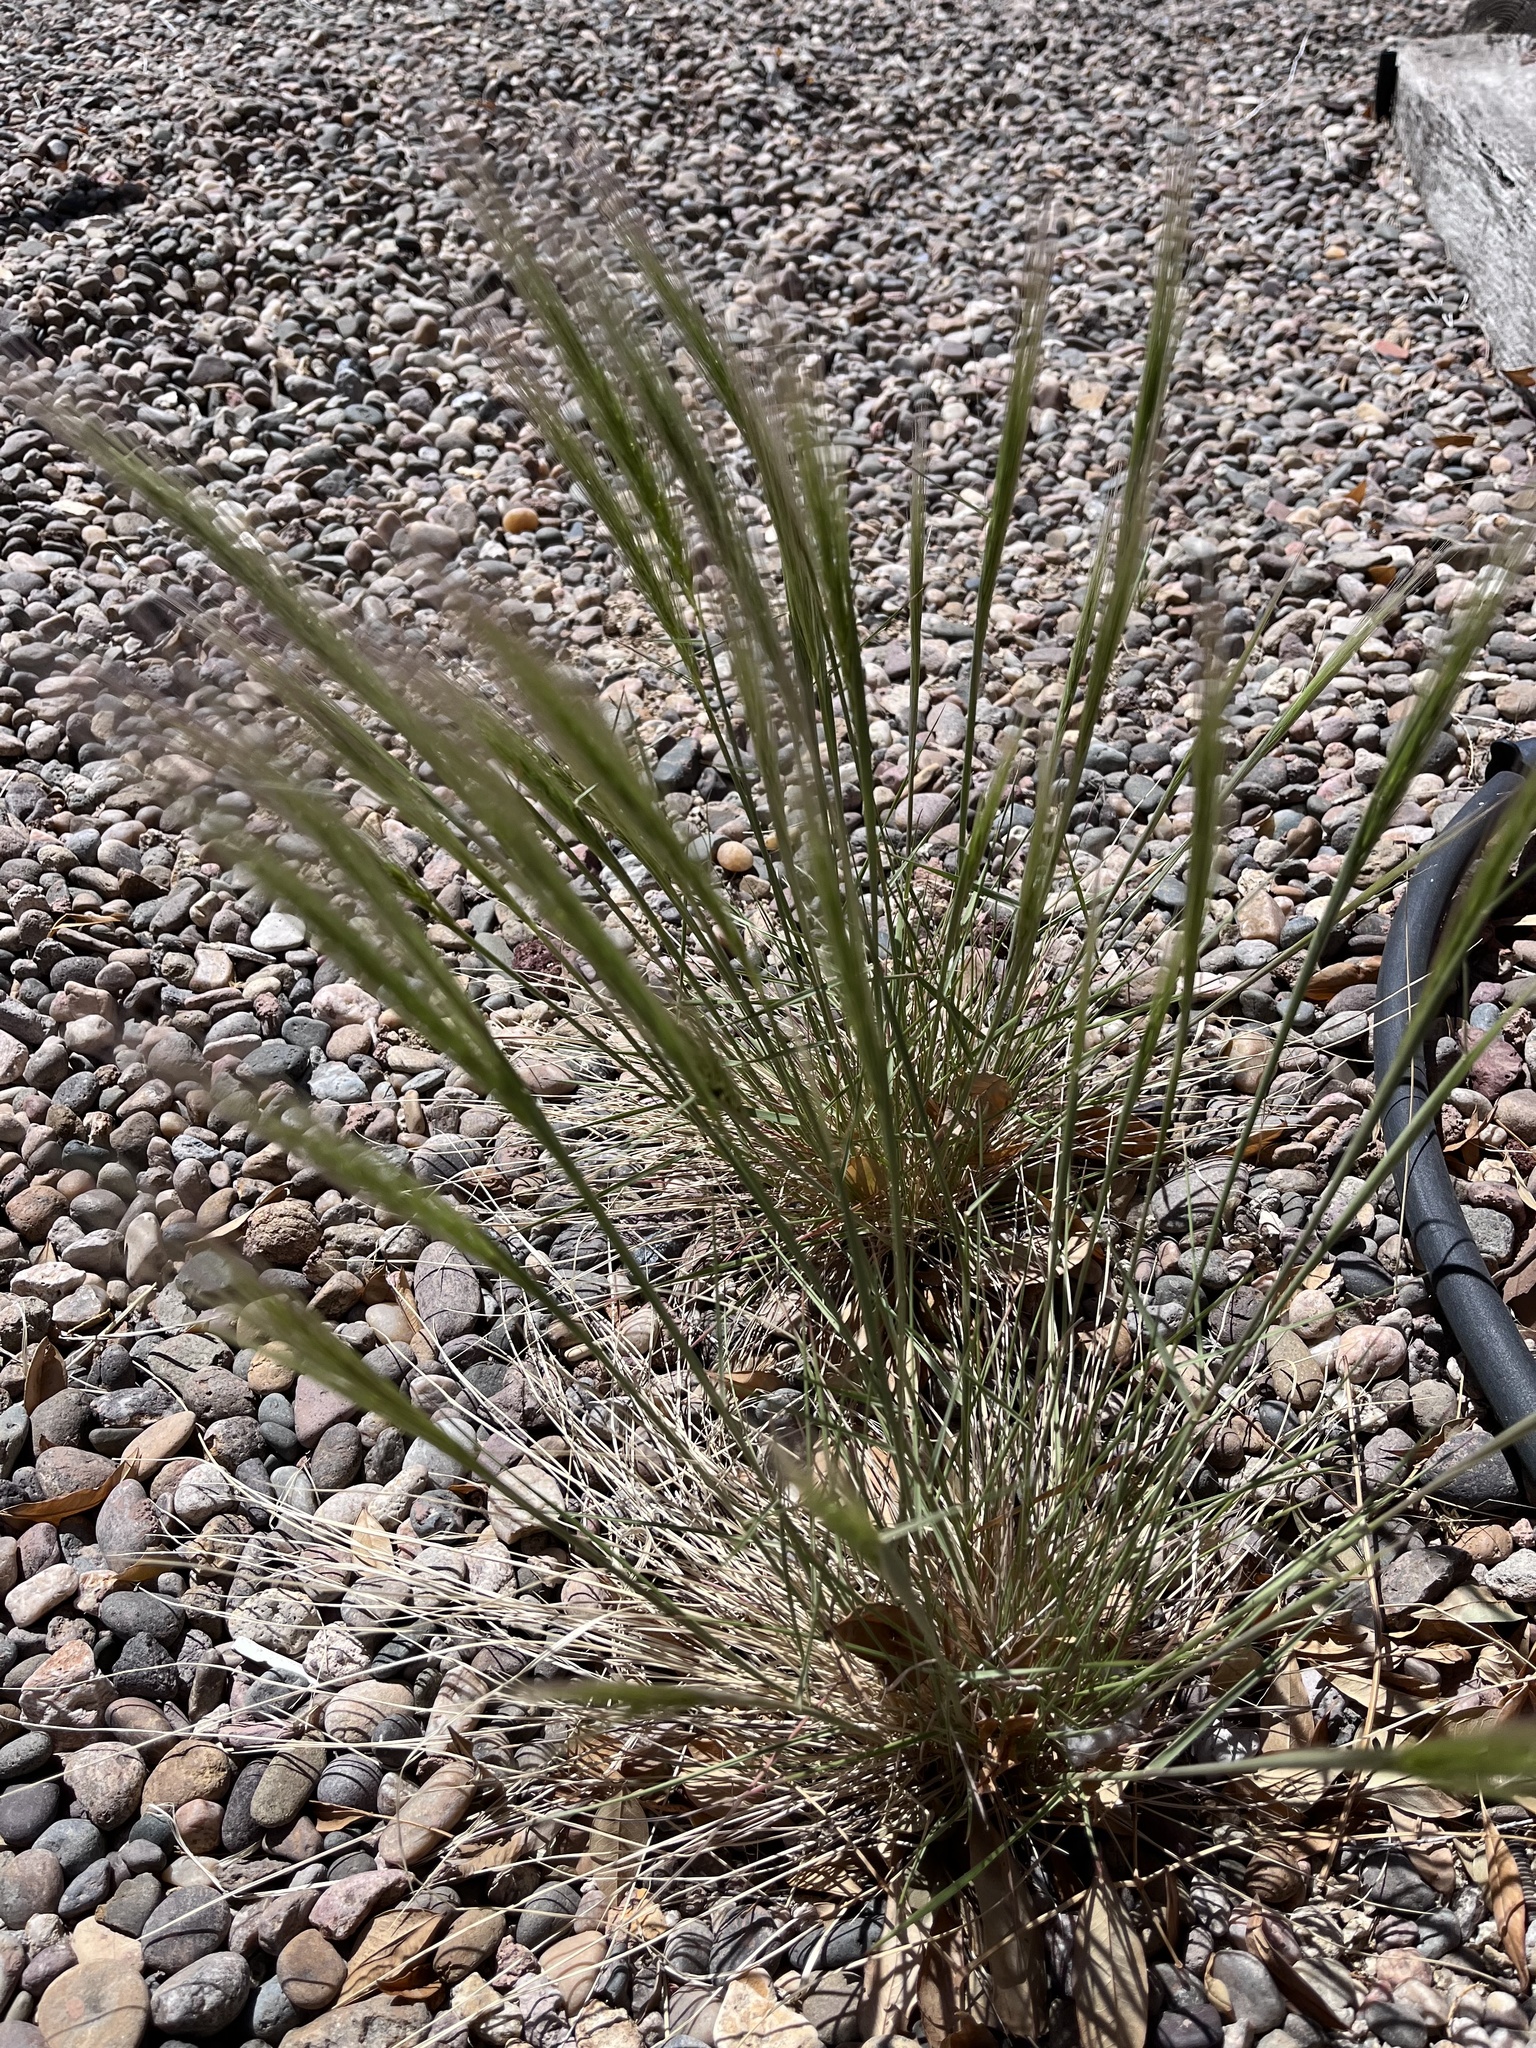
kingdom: Plantae
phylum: Tracheophyta
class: Liliopsida
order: Poales
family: Poaceae
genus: Hordeum
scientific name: Hordeum vulgare
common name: Common barley
